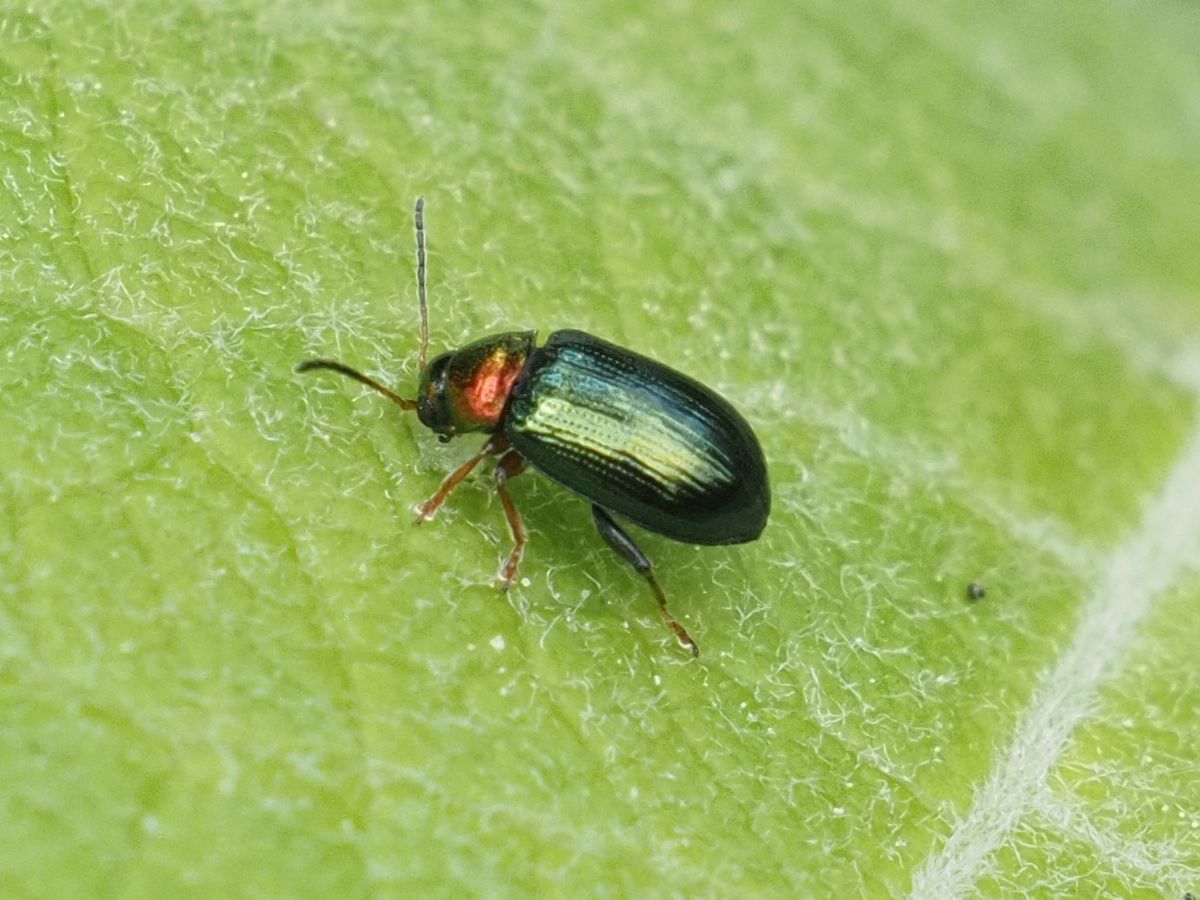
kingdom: Animalia
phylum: Arthropoda
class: Insecta
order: Coleoptera
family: Chrysomelidae
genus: Crepidodera
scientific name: Crepidodera aurata
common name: Willow flea beetle
